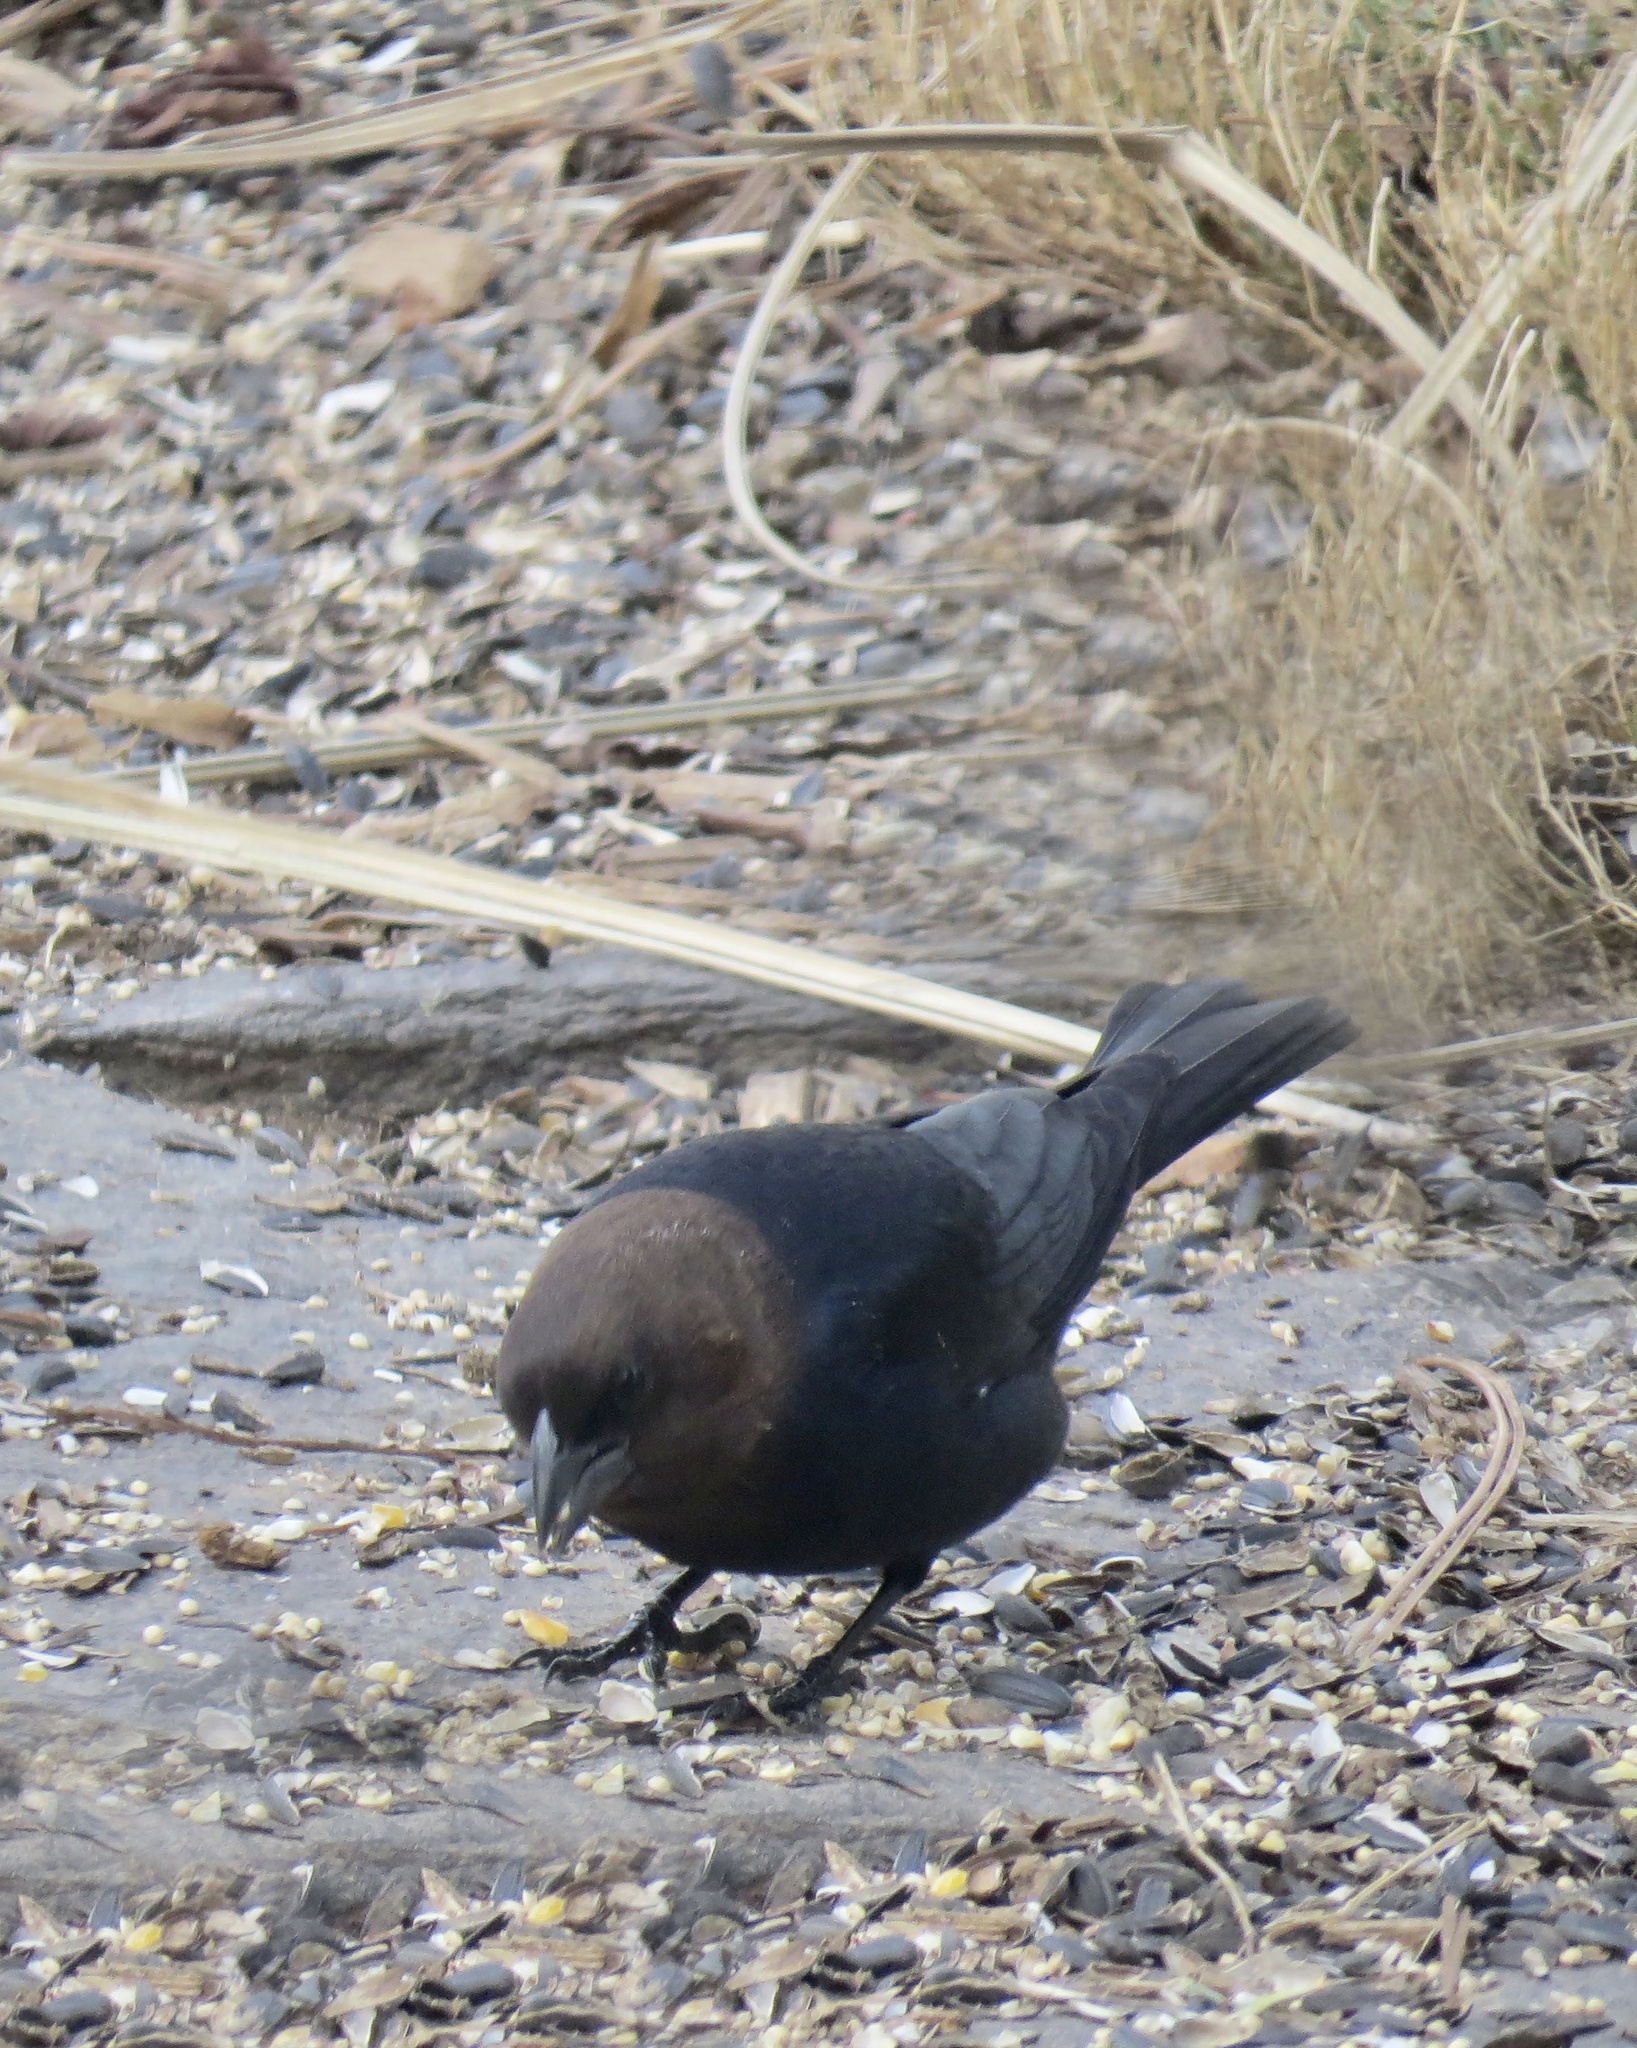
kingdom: Animalia
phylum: Chordata
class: Aves
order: Passeriformes
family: Icteridae
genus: Molothrus
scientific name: Molothrus ater
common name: Brown-headed cowbird
